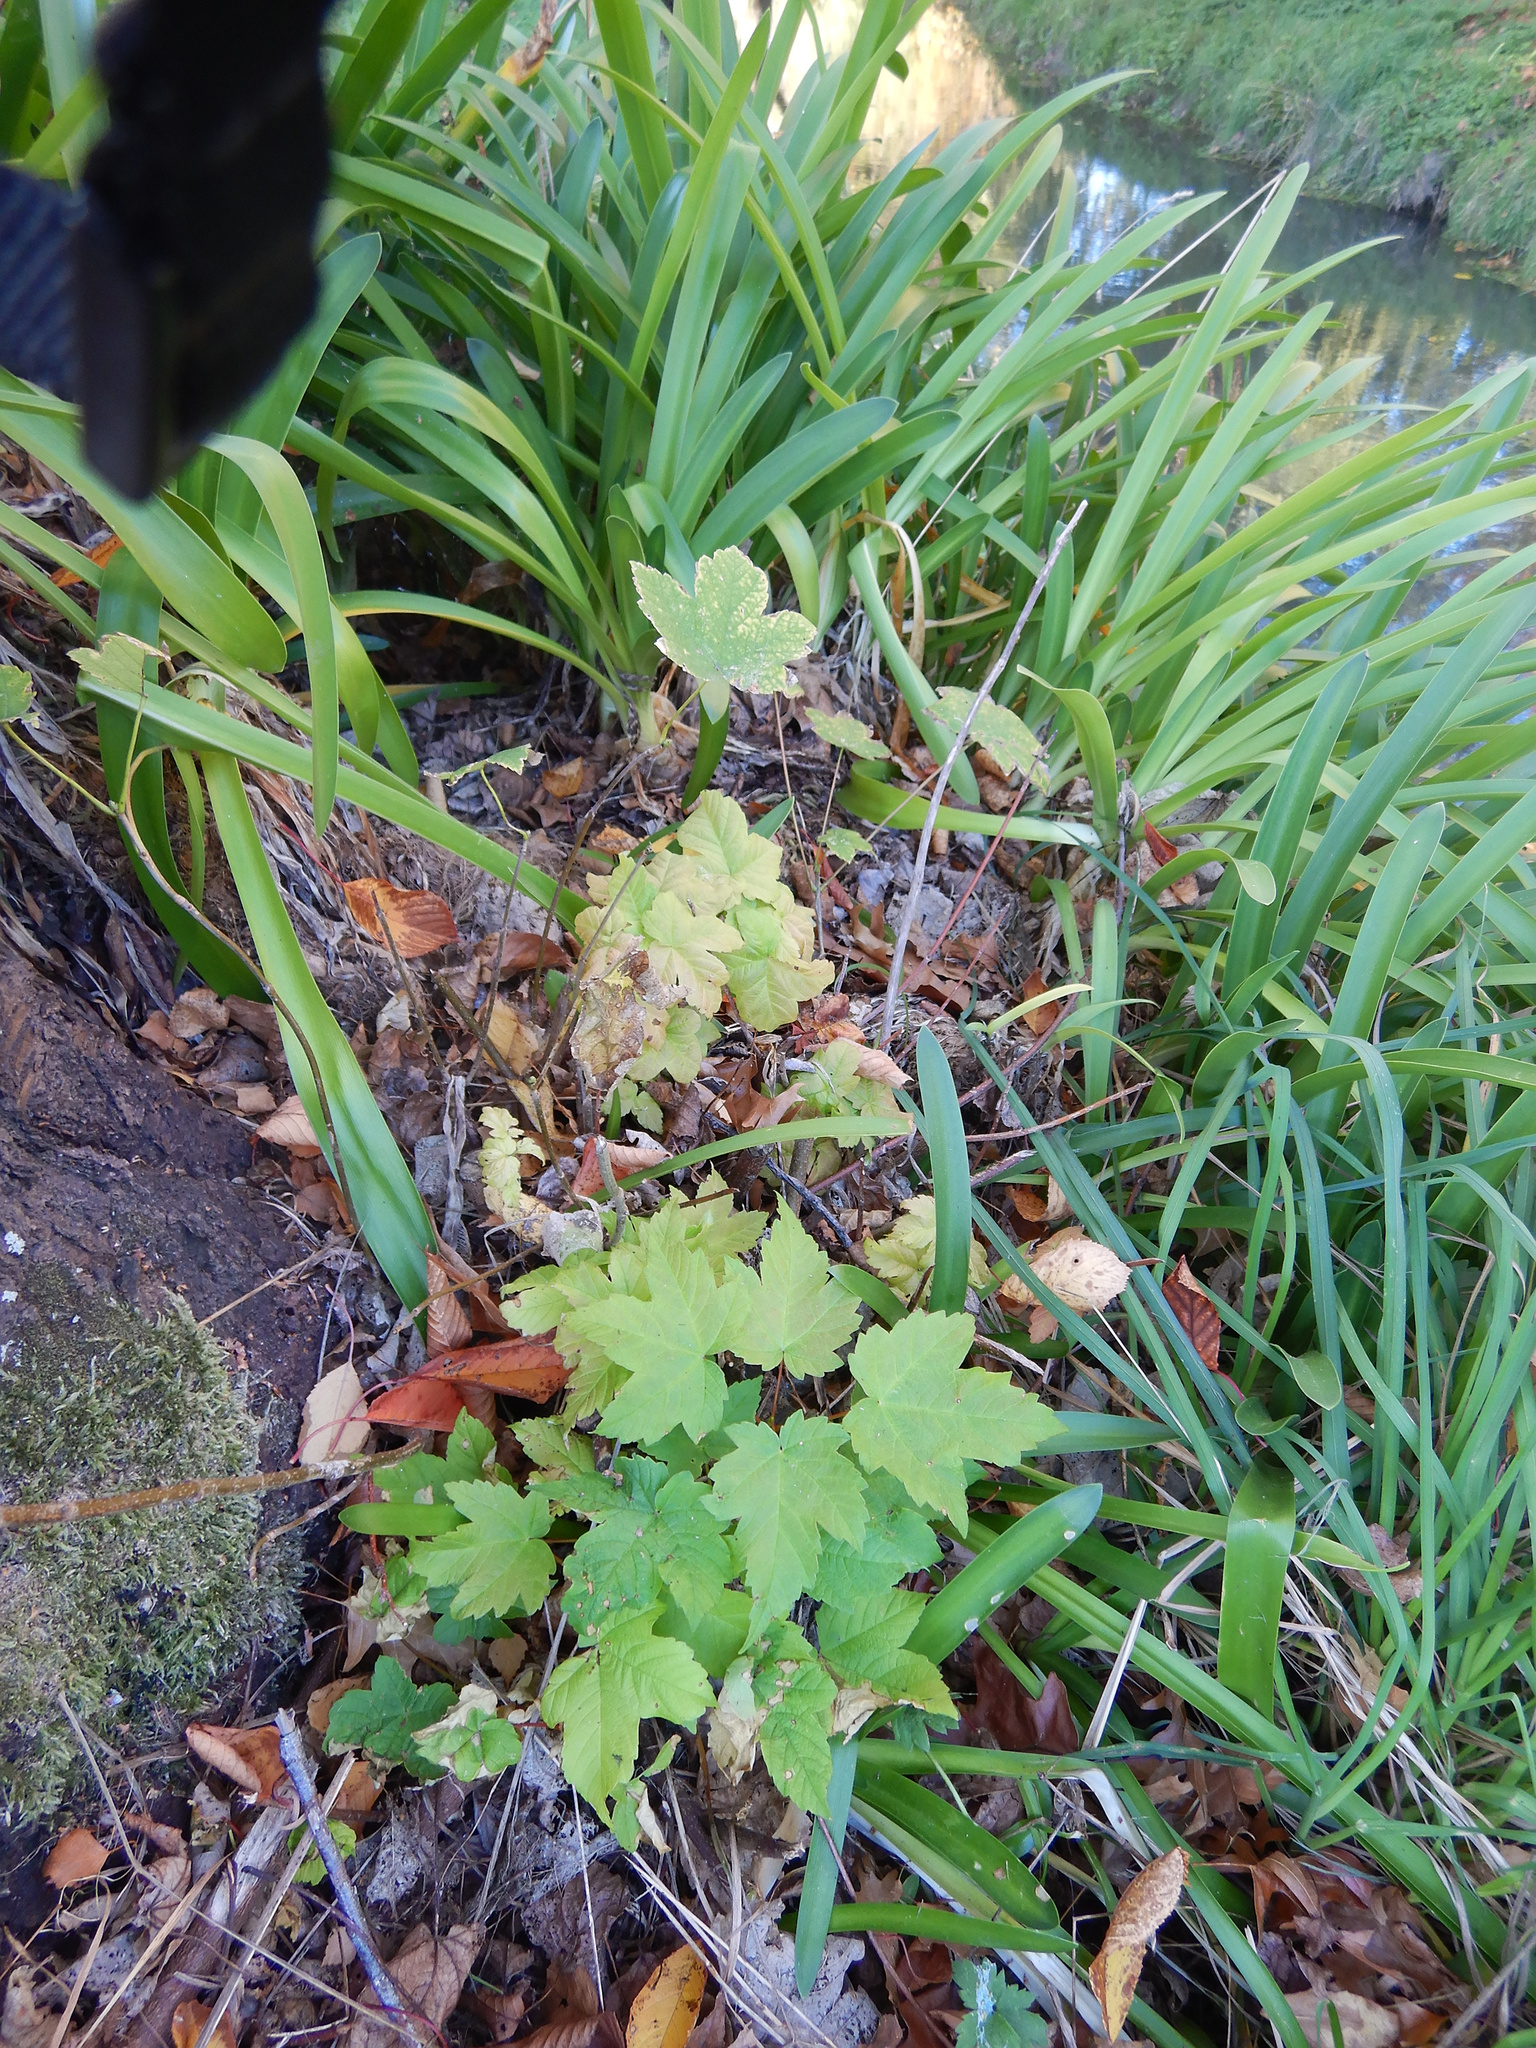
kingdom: Plantae
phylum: Tracheophyta
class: Magnoliopsida
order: Sapindales
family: Sapindaceae
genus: Acer
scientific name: Acer pseudoplatanus
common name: Sycamore
